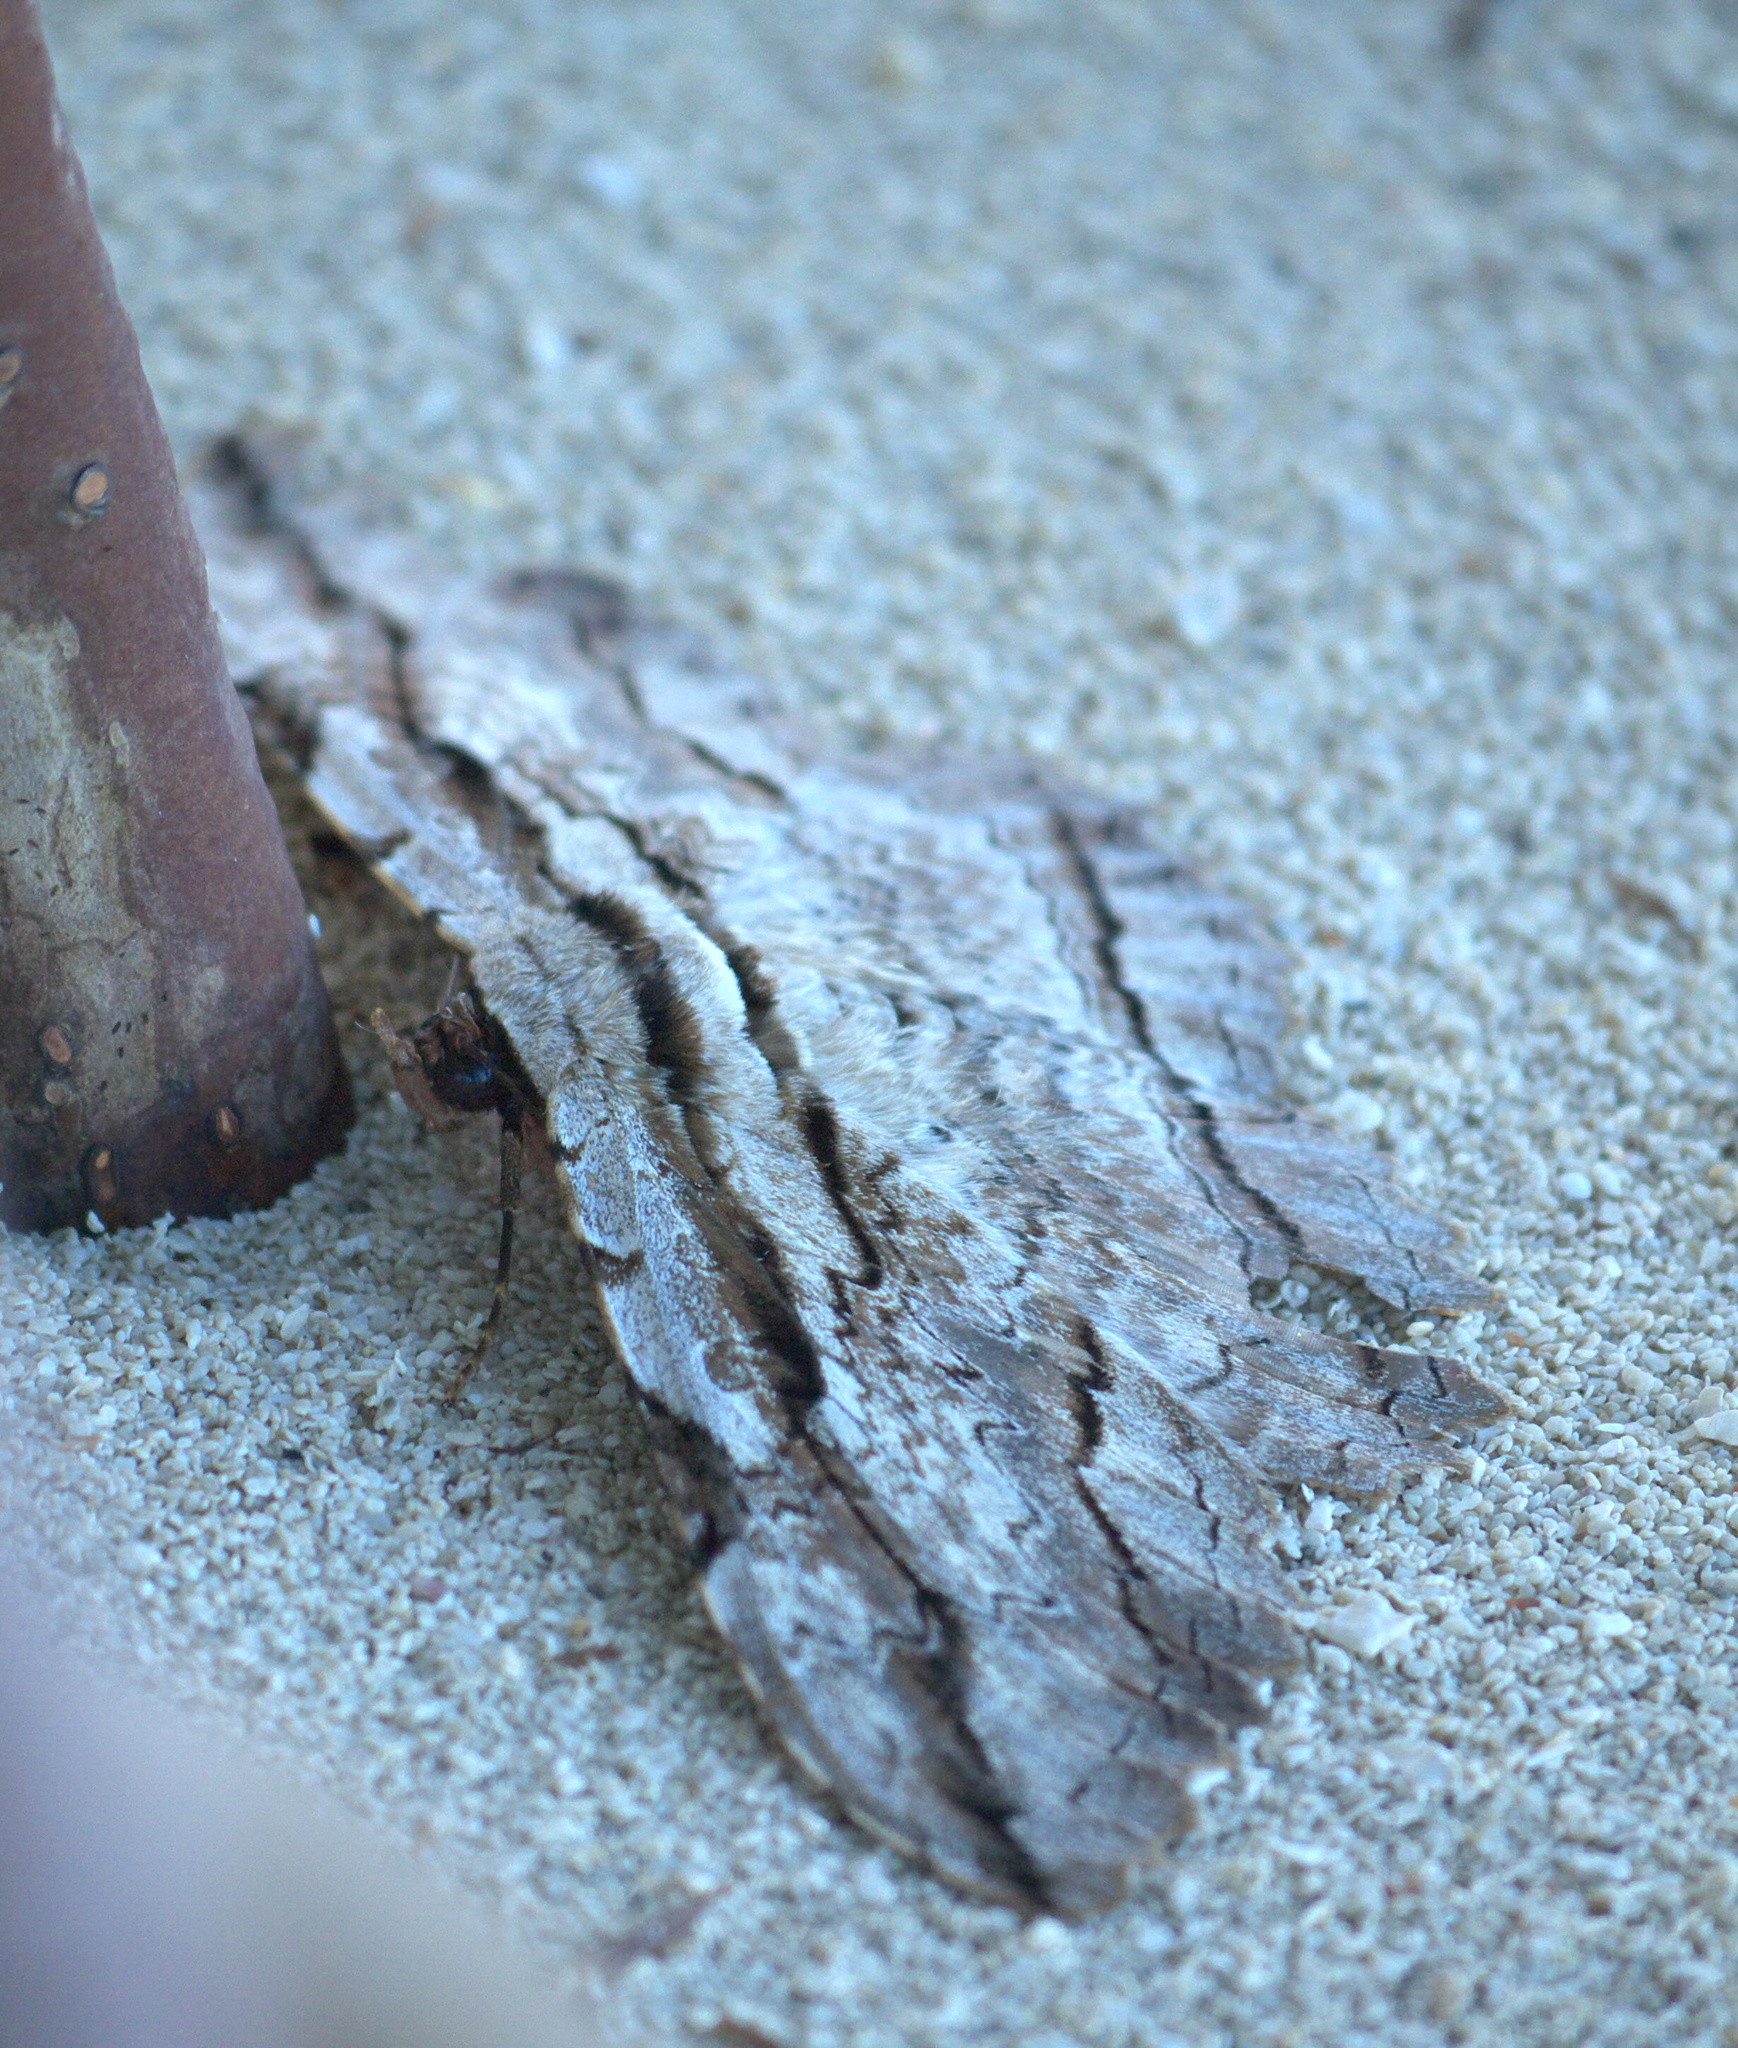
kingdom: Animalia
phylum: Arthropoda
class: Insecta
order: Lepidoptera
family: Erebidae
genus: Thysania
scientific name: Thysania zenobia
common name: Owl moth
